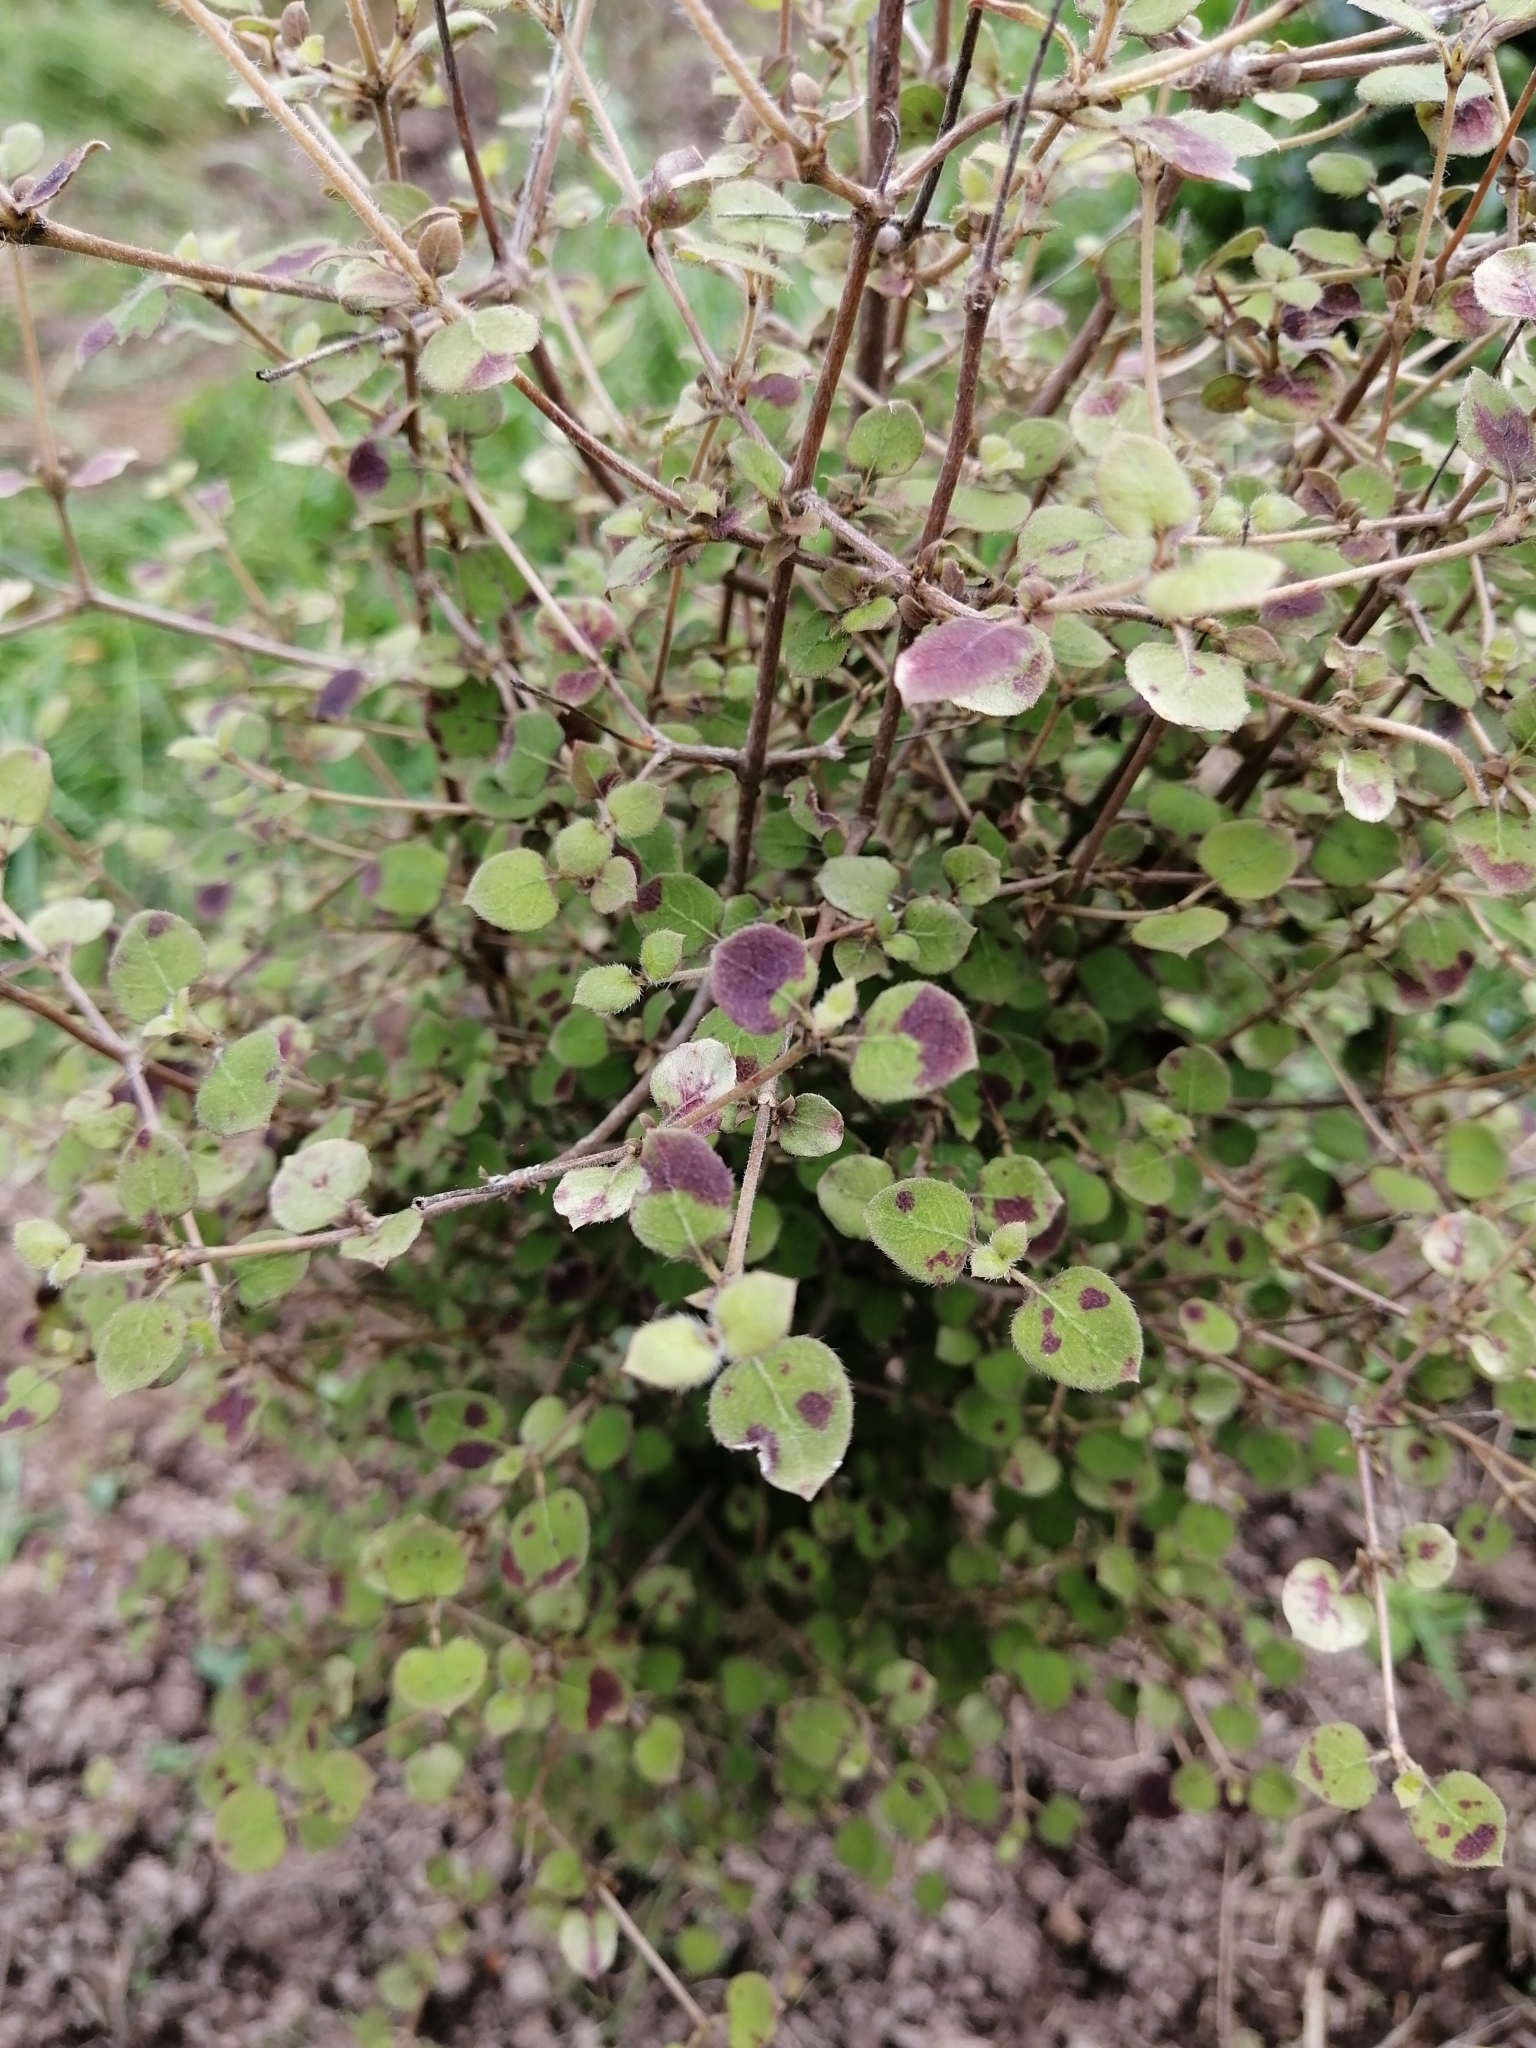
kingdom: Plantae
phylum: Tracheophyta
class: Magnoliopsida
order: Gentianales
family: Rubiaceae
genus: Coprosma
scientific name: Coprosma rotundifolia
